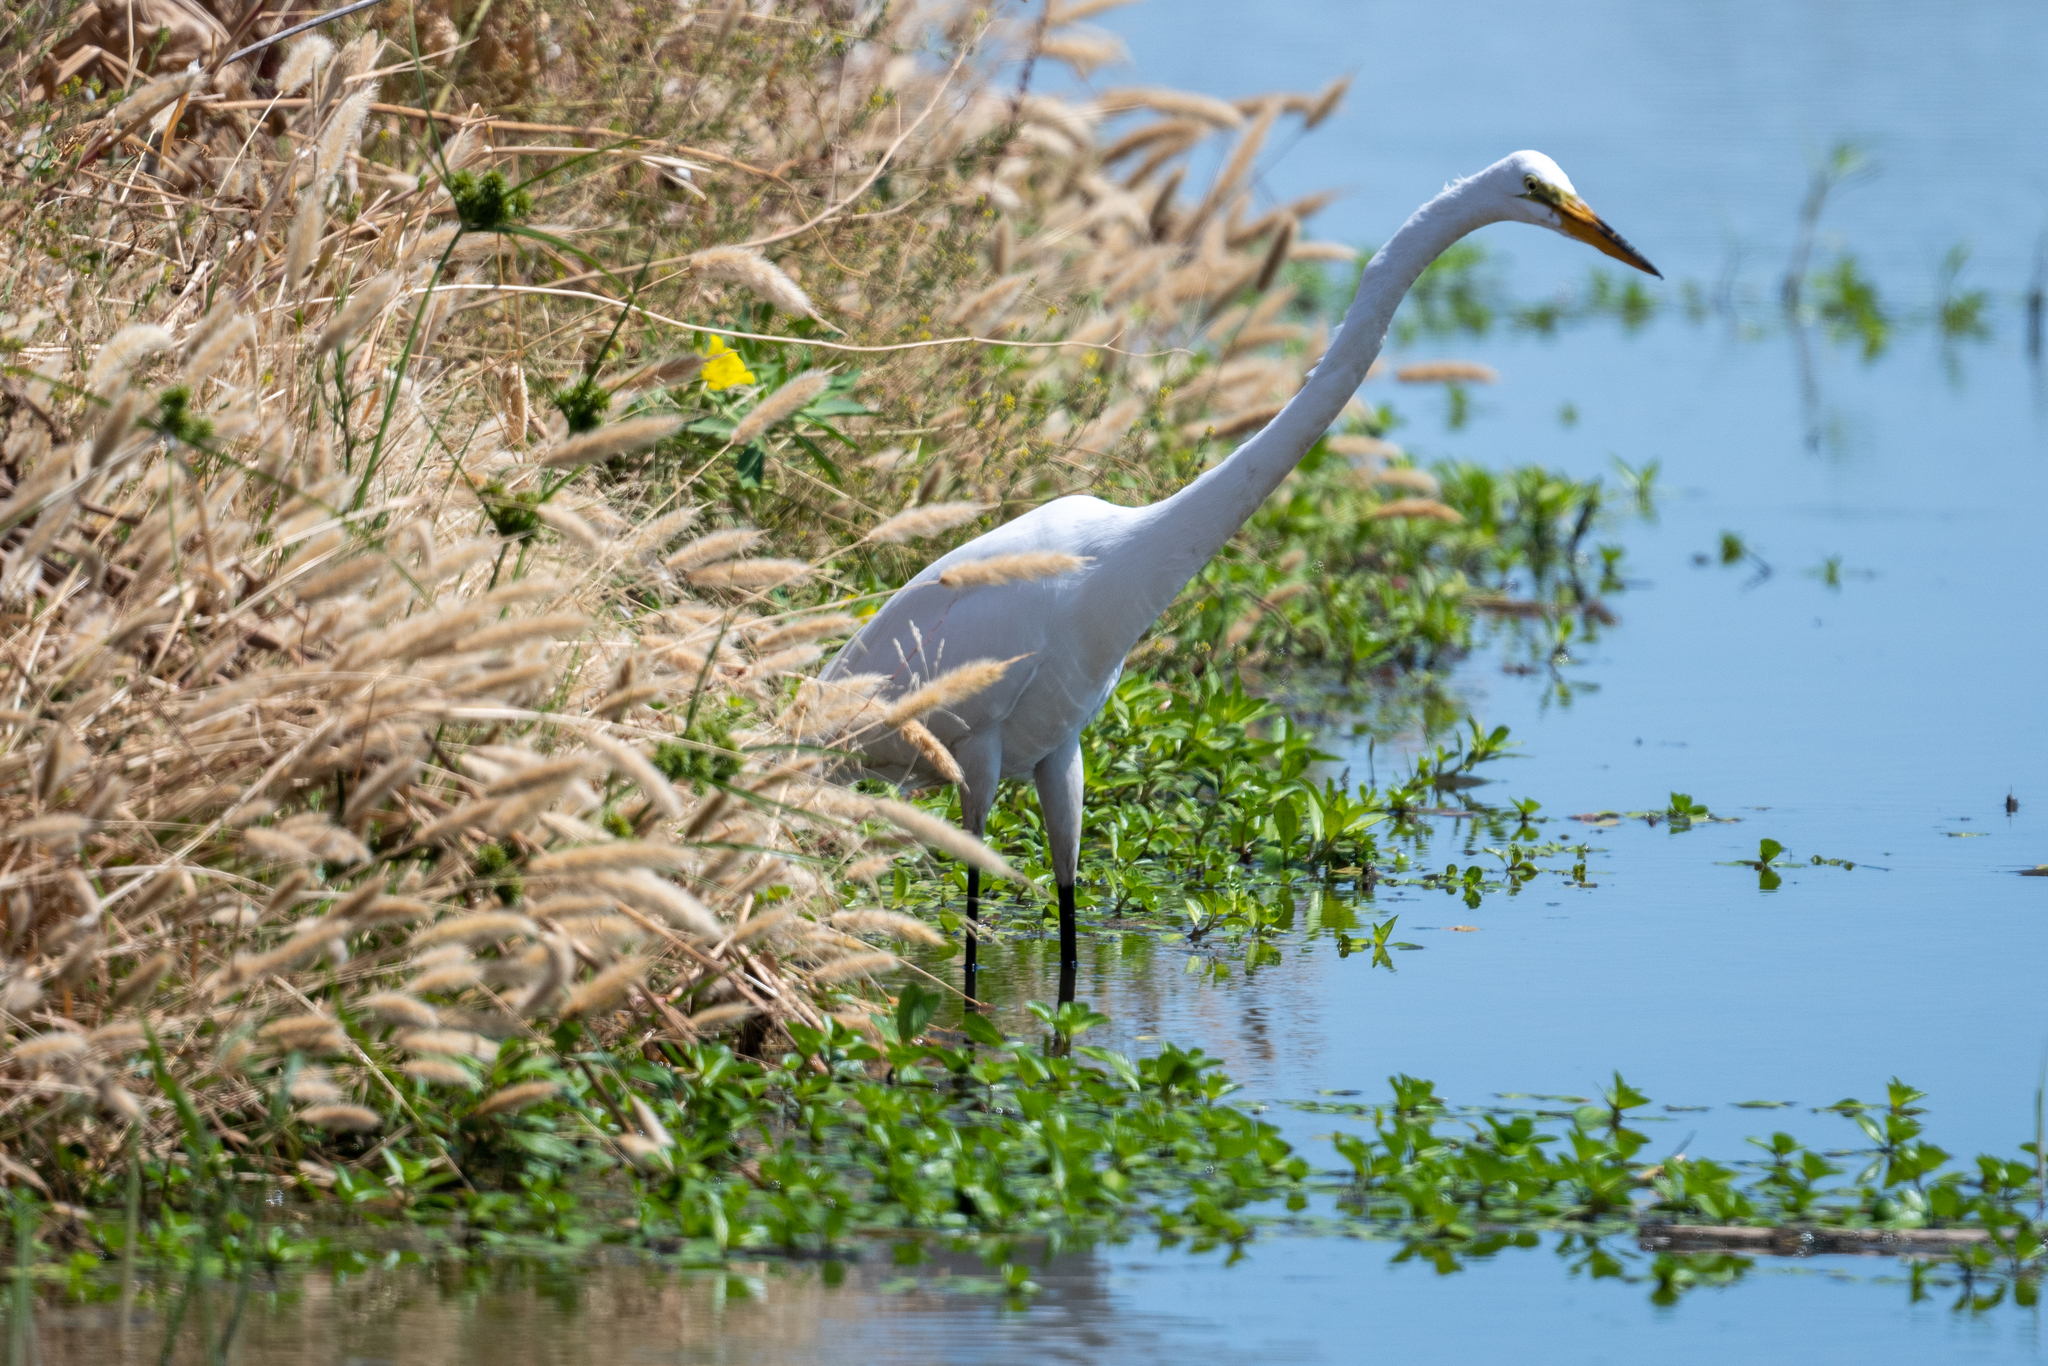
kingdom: Animalia
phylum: Chordata
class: Aves
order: Pelecaniformes
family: Ardeidae
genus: Ardea
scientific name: Ardea alba
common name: Great egret
